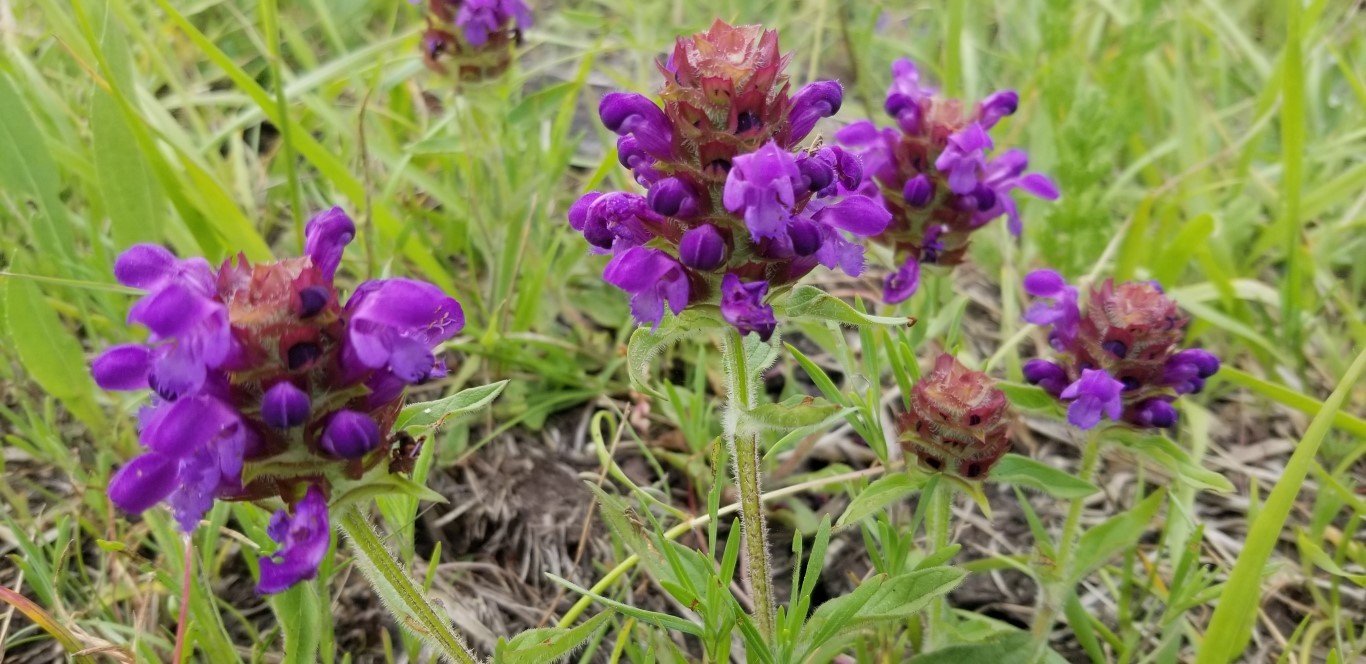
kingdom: Plantae
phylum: Tracheophyta
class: Magnoliopsida
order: Lamiales
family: Lamiaceae
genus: Prunella
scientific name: Prunella vulgaris
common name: Heal-all
